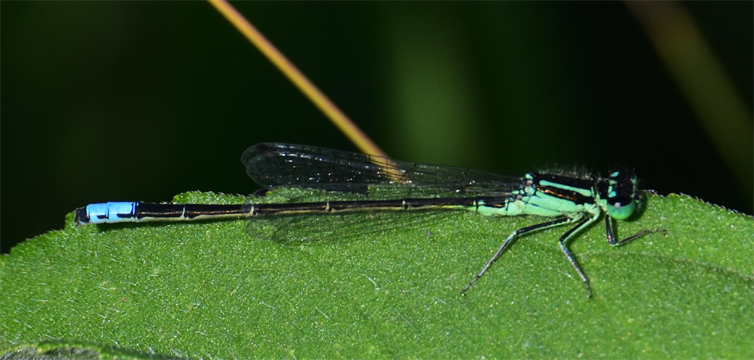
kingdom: Animalia
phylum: Arthropoda
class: Insecta
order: Odonata
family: Coenagrionidae
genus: Ischnura
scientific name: Ischnura verticalis
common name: Eastern forktail
